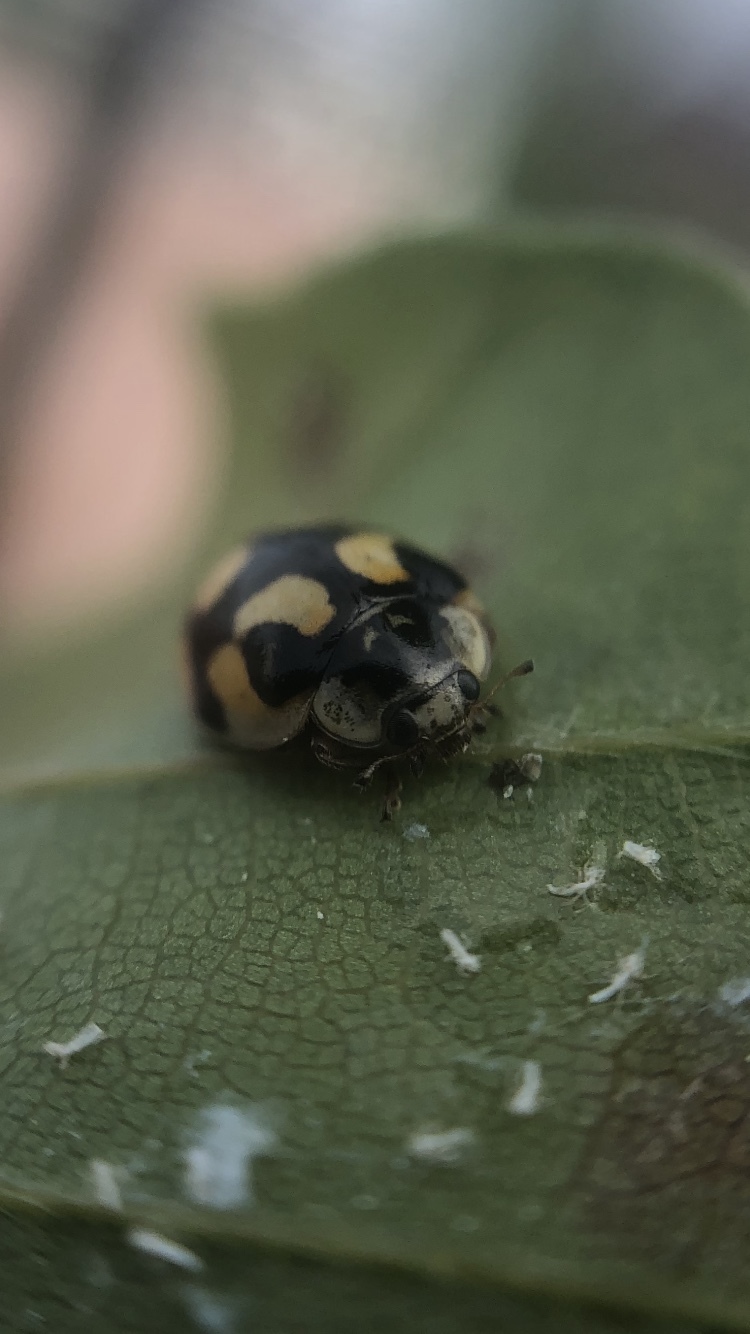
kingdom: Animalia
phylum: Arthropoda
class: Insecta
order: Coleoptera
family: Coccinellidae
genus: Adalia
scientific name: Adalia decempunctata
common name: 10-spot ladybird
